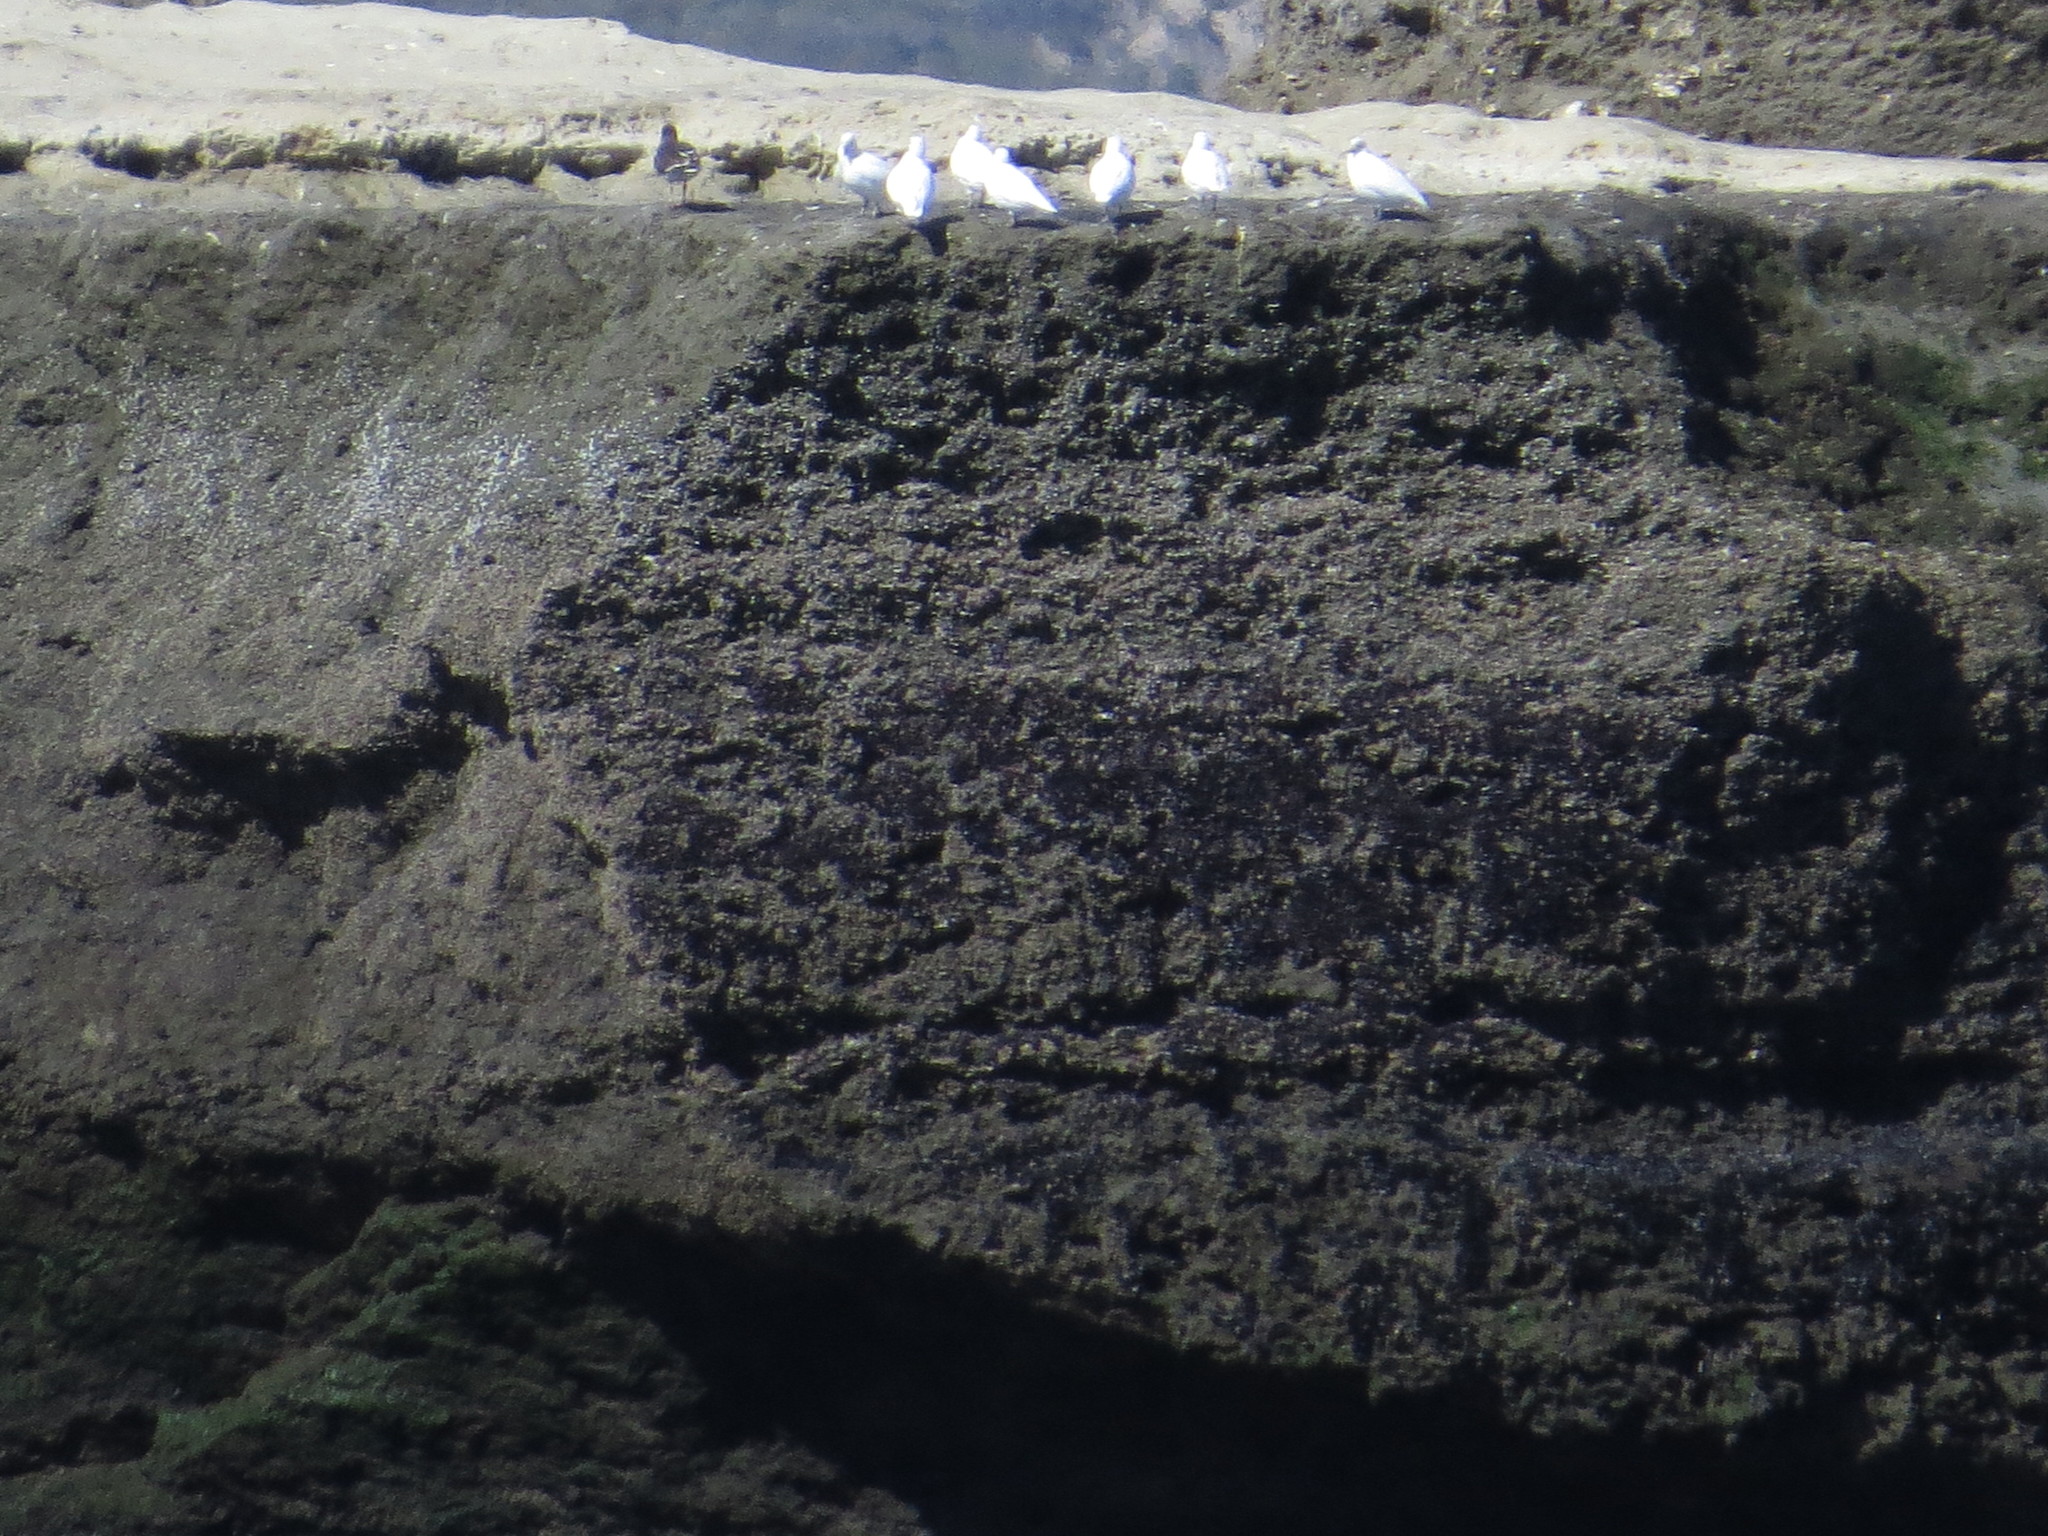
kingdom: Animalia
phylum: Chordata
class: Aves
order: Charadriiformes
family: Chionidae
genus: Chionis
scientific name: Chionis albus
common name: Snowy sheathbill
